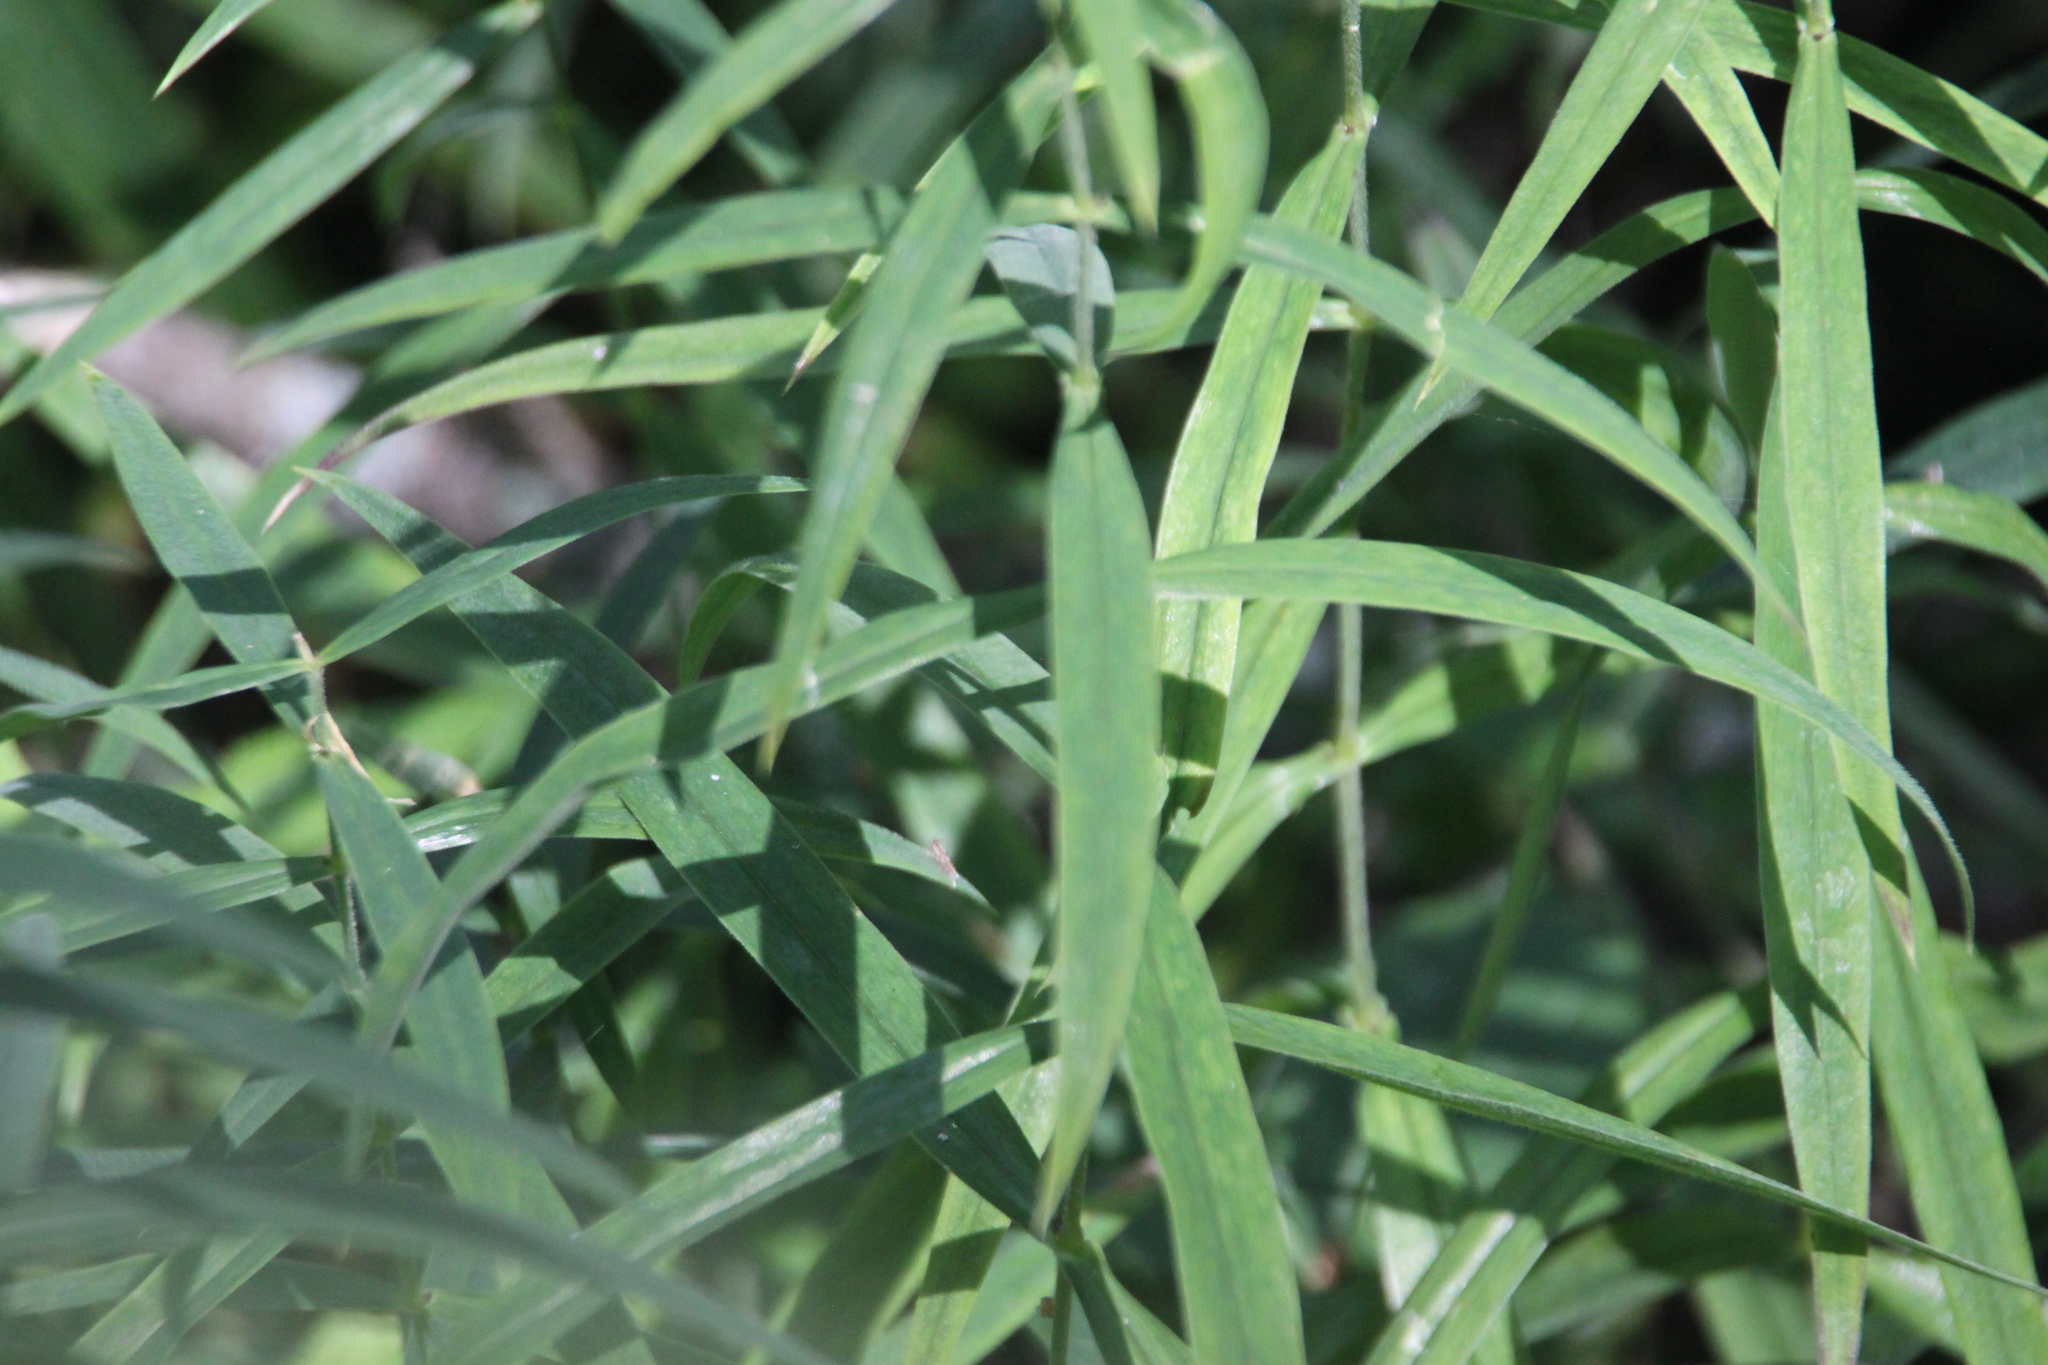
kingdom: Plantae
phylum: Tracheophyta
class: Magnoliopsida
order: Caryophyllales
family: Caryophyllaceae
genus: Rabelera
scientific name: Rabelera holostea
